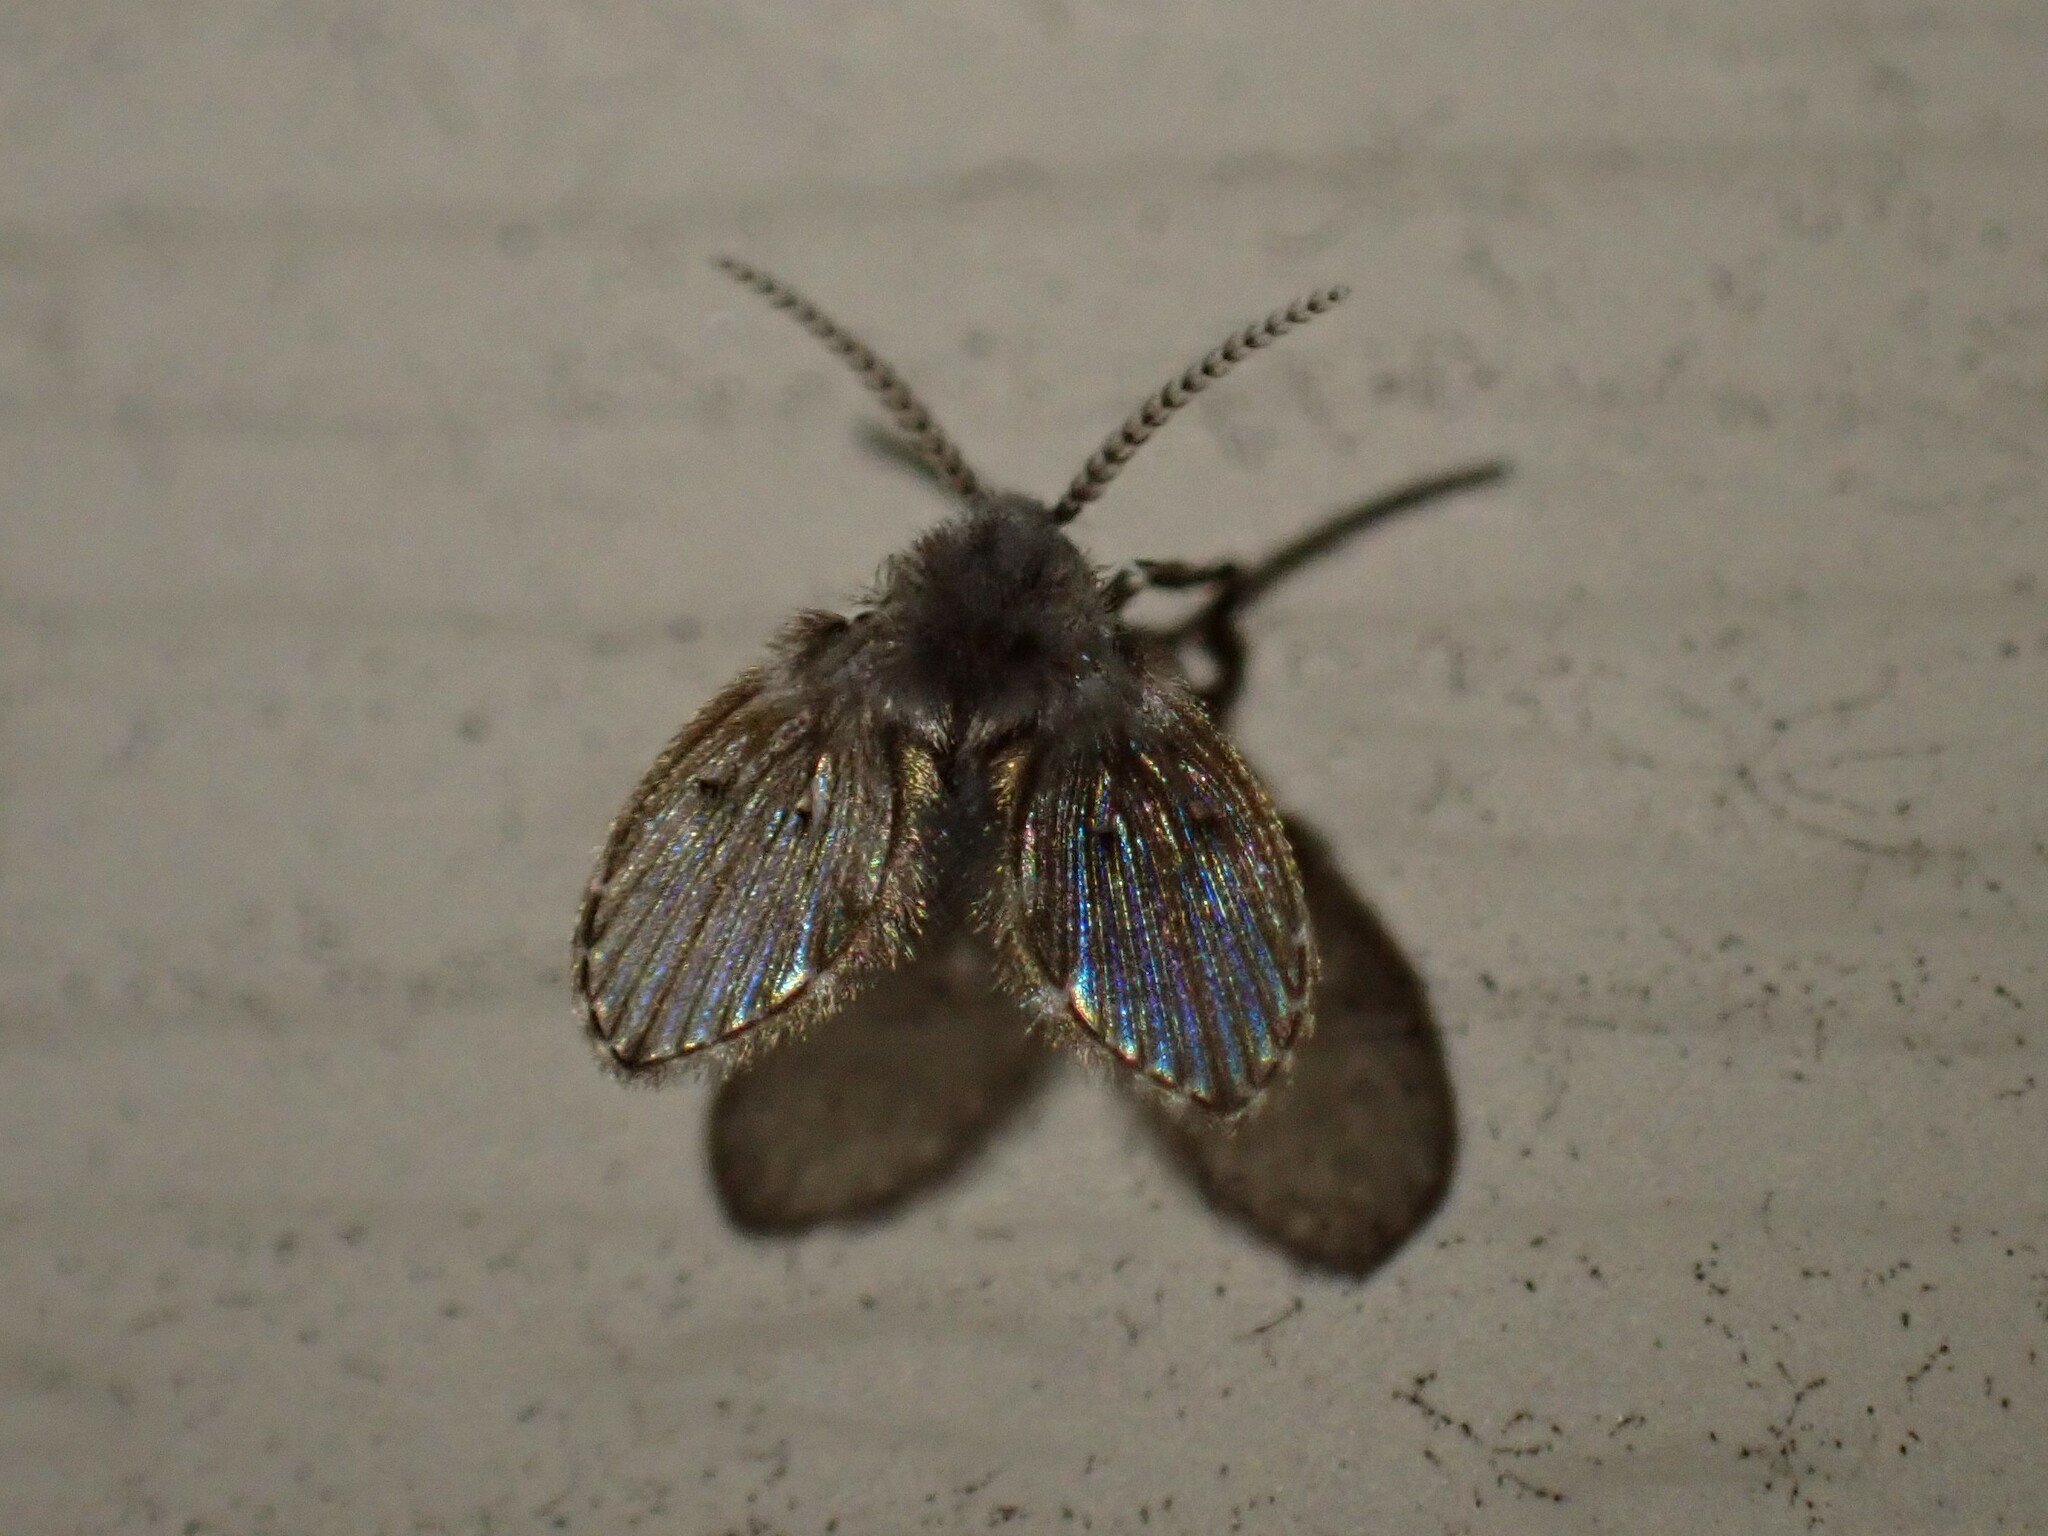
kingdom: Animalia
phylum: Arthropoda
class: Insecta
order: Diptera
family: Psychodidae
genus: Clogmia
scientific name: Clogmia albipunctatus
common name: White-spotted moth fly
